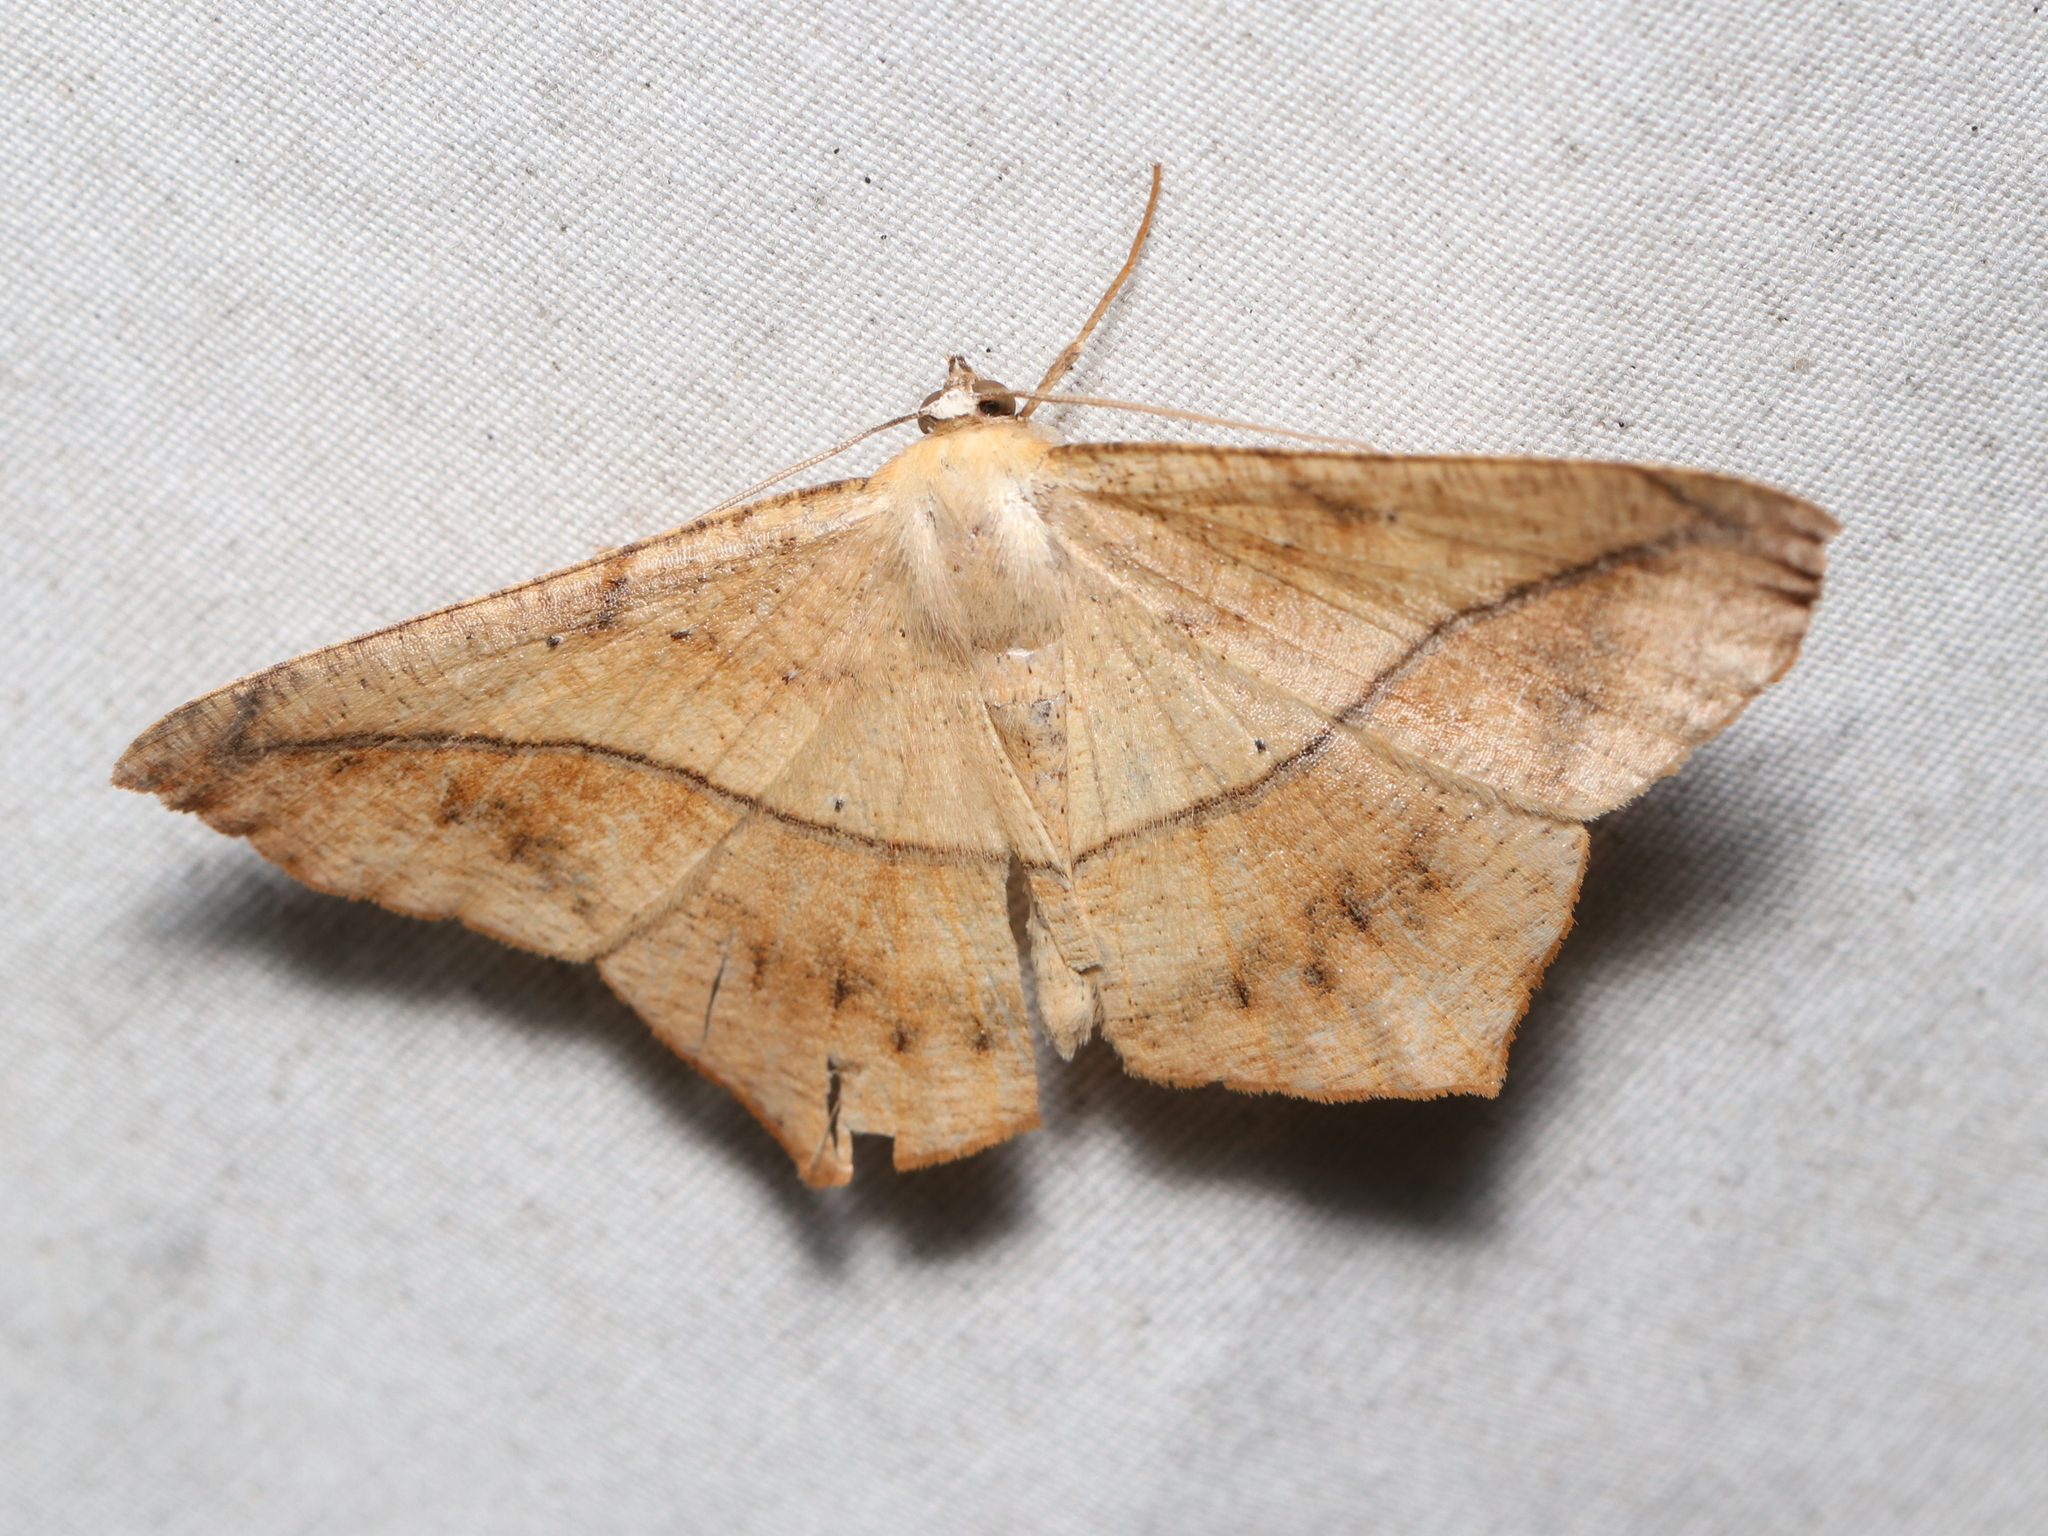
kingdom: Animalia
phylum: Arthropoda
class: Insecta
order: Lepidoptera
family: Geometridae
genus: Prochoerodes
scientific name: Prochoerodes lineola
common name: Large maple spanworm
